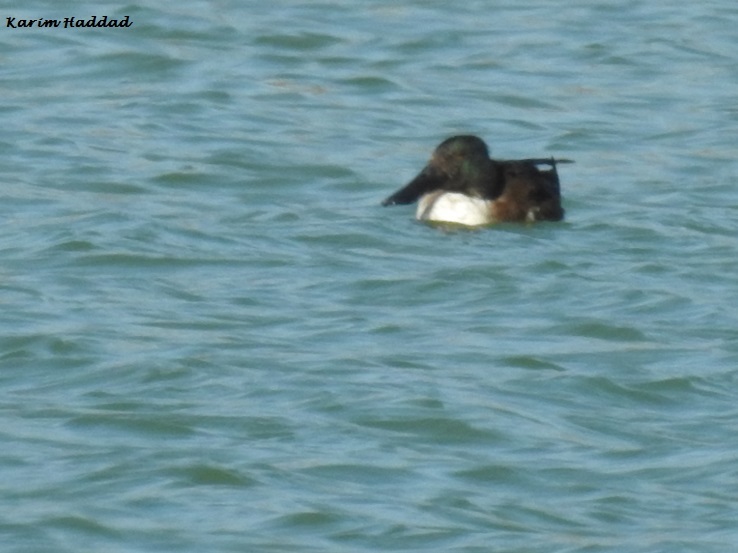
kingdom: Animalia
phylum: Chordata
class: Aves
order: Anseriformes
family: Anatidae
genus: Spatula
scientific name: Spatula clypeata
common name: Northern shoveler
